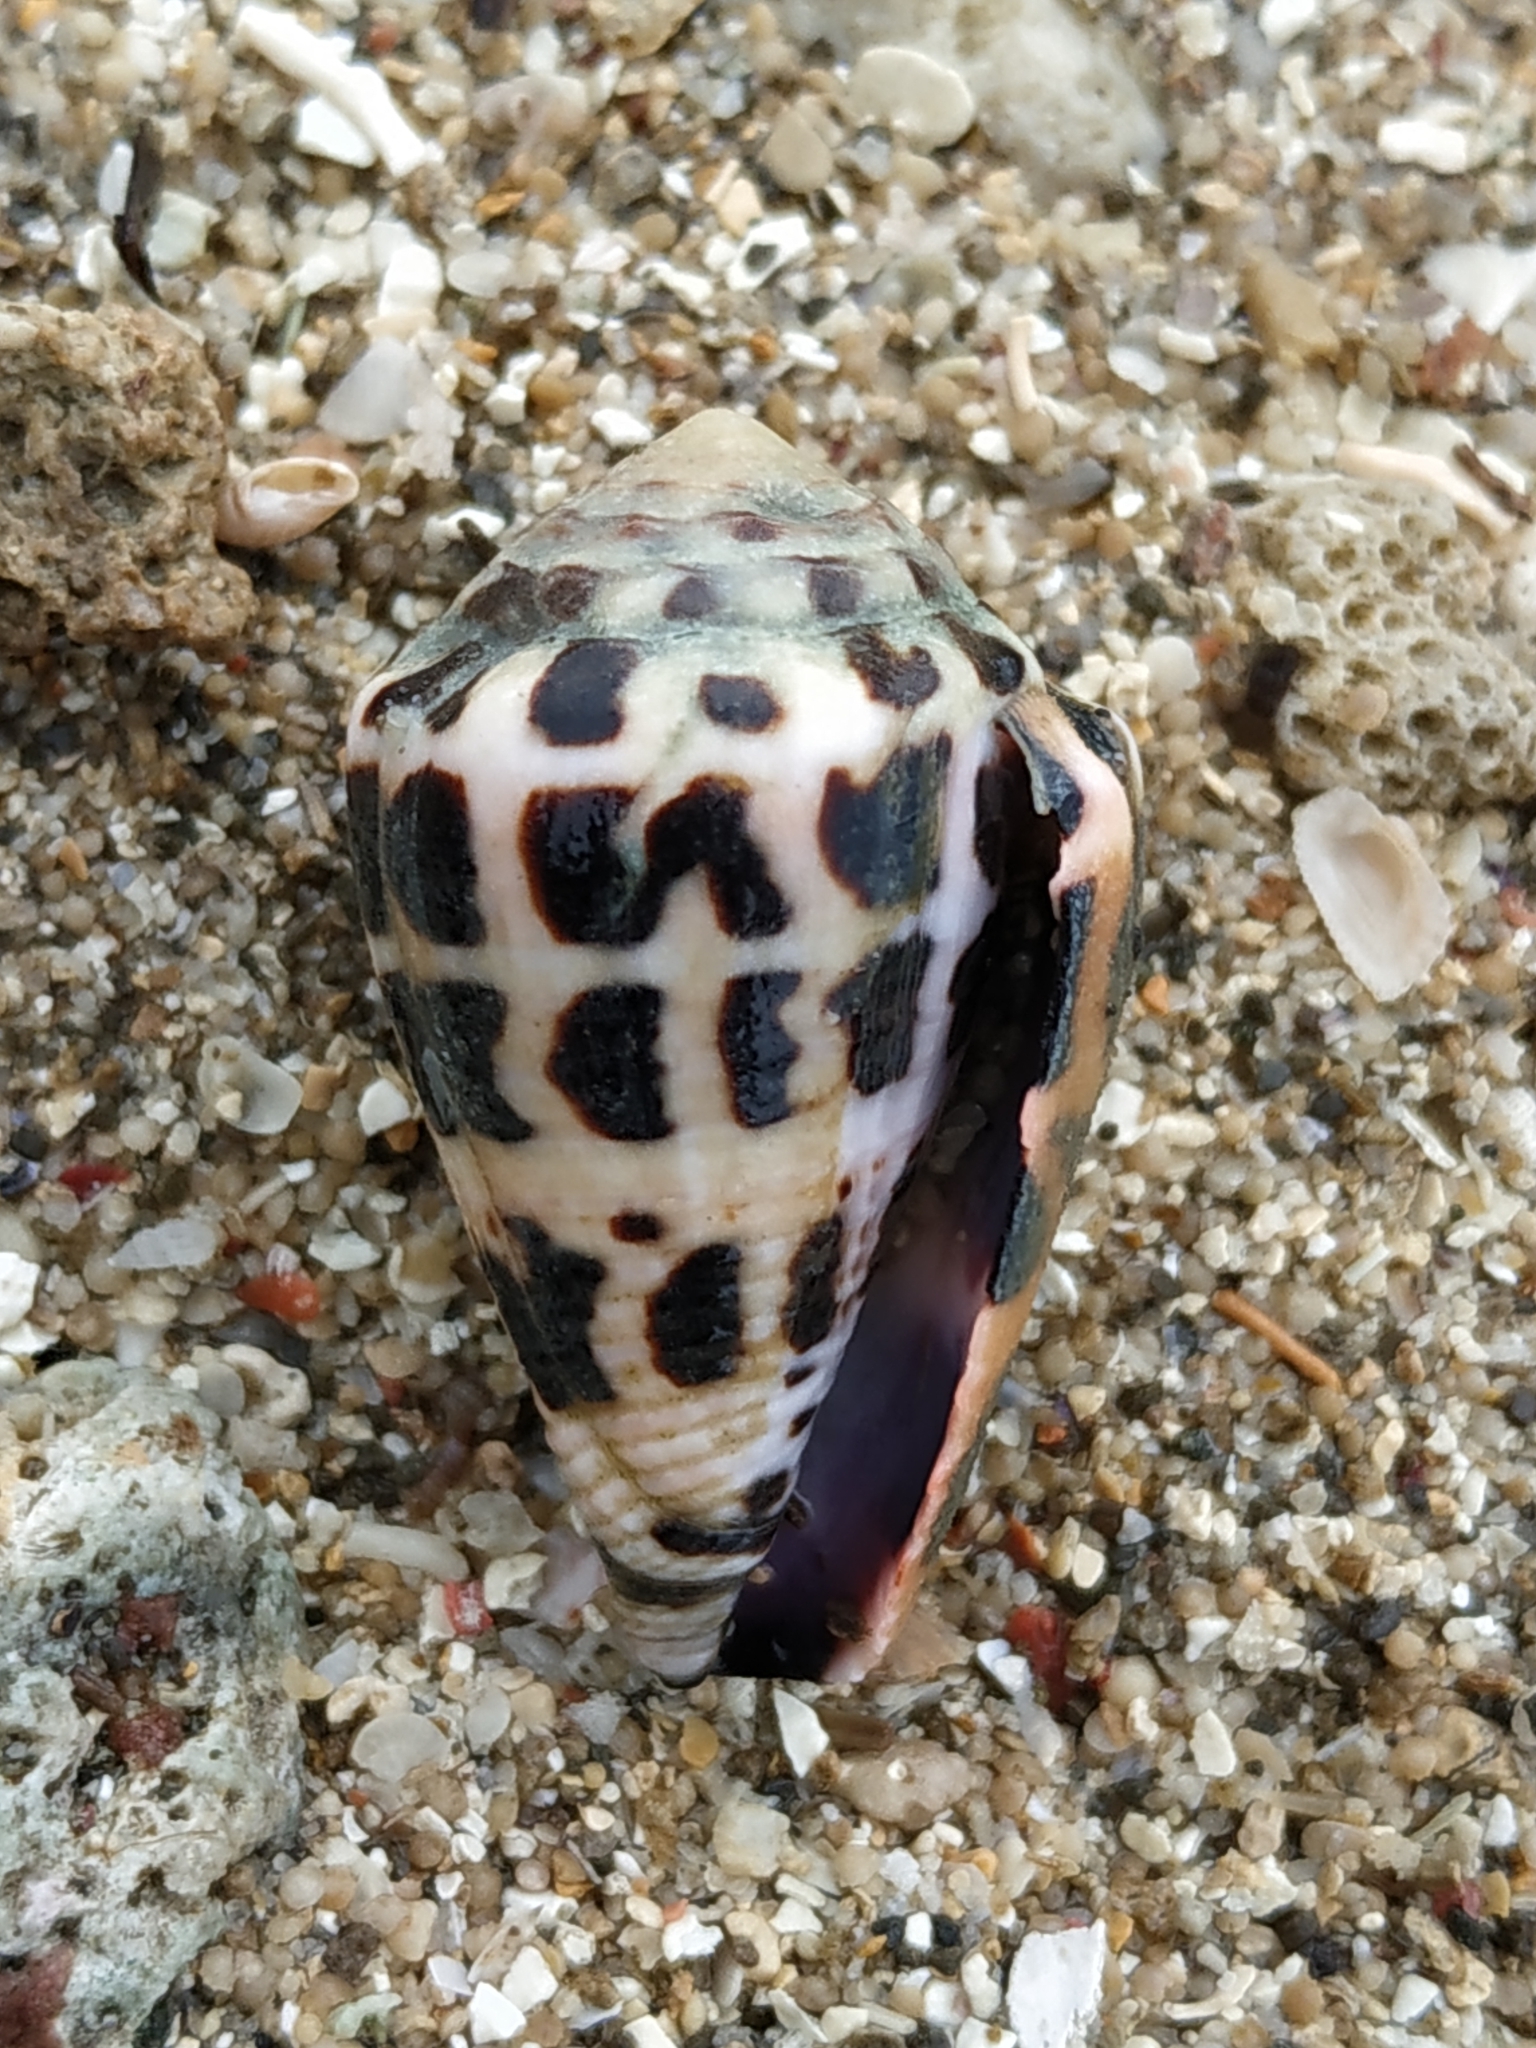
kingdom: Animalia
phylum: Mollusca
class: Gastropoda
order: Neogastropoda
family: Conidae
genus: Conus
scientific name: Conus ebraeus
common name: Hebrew cone
